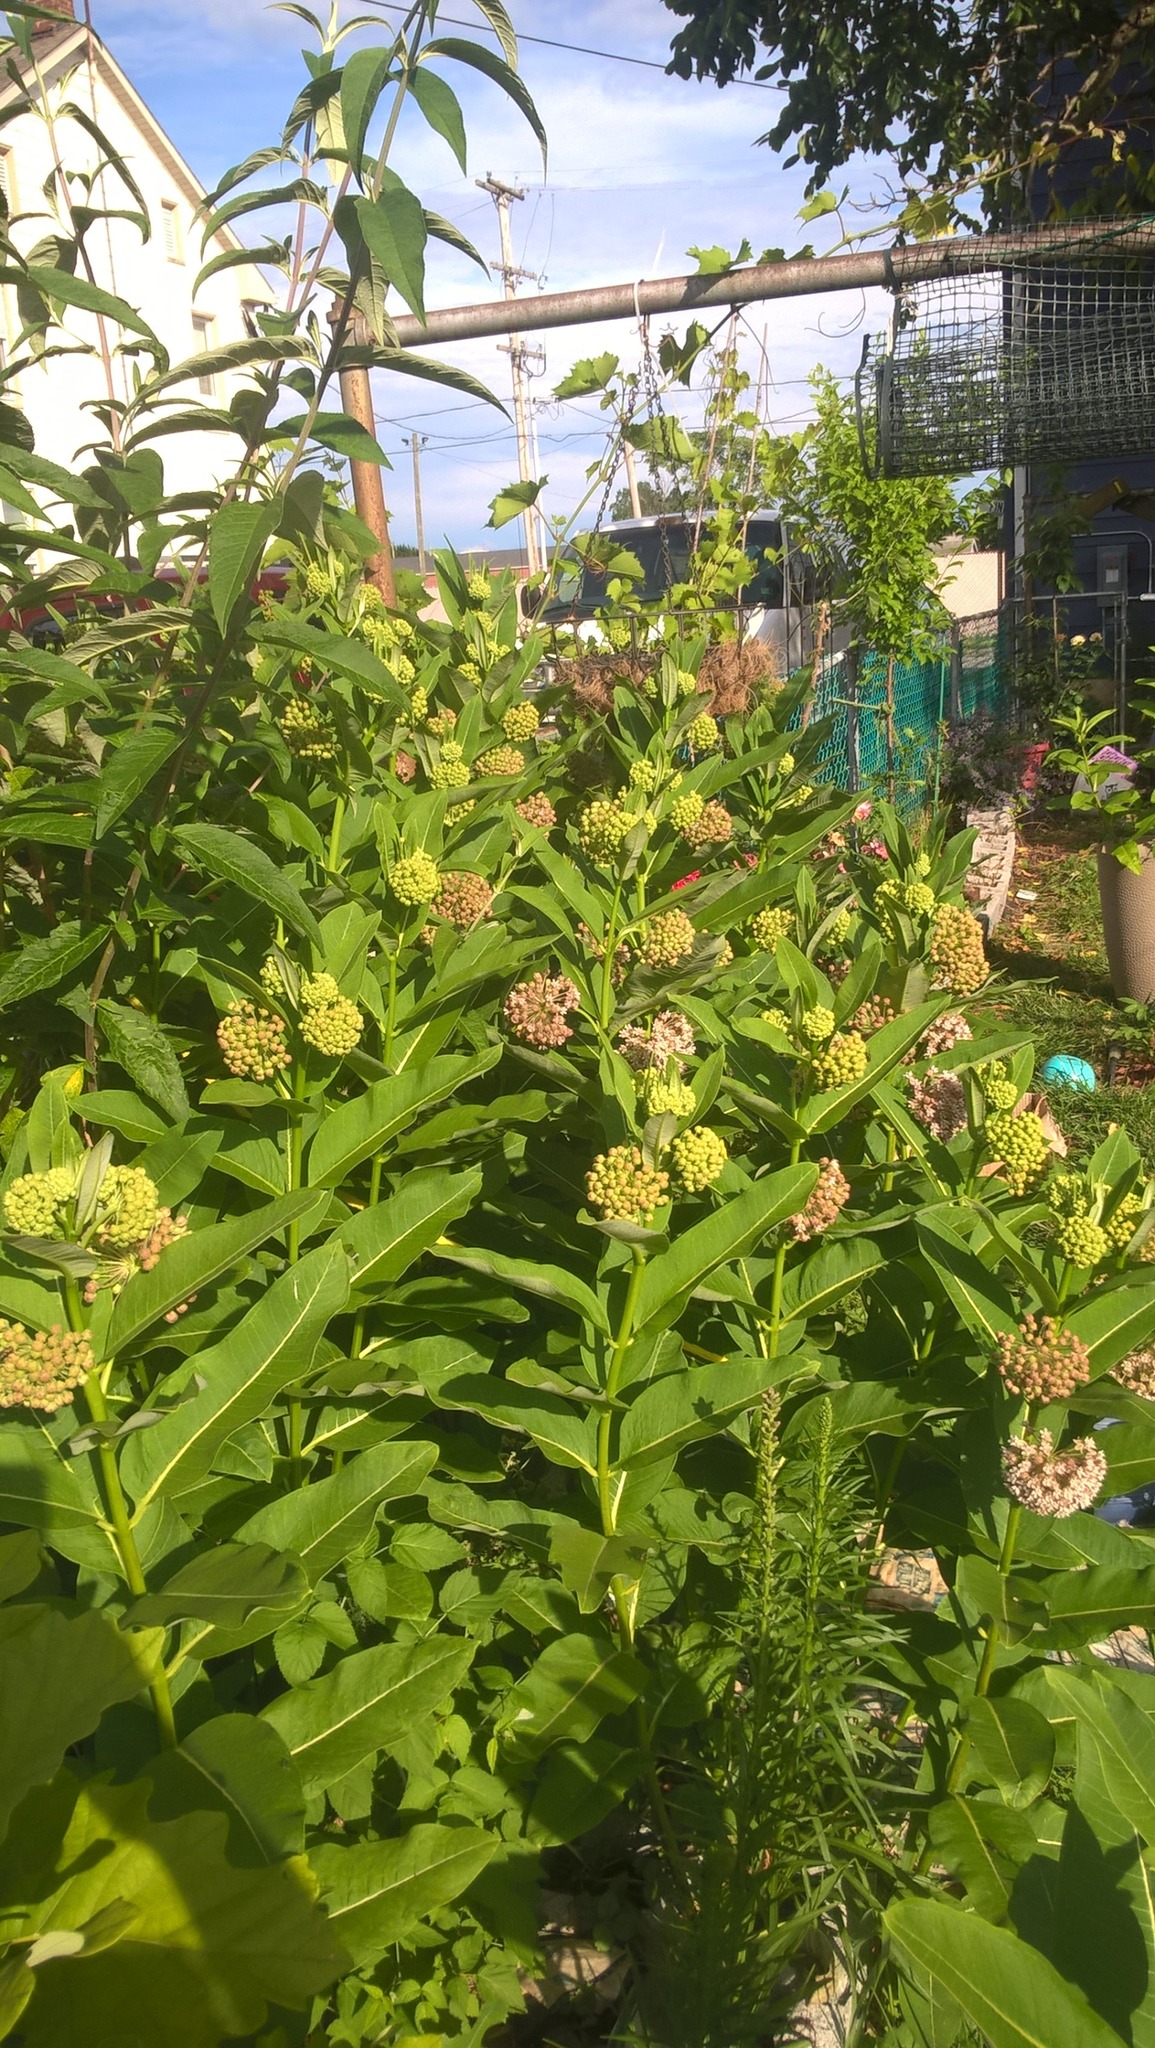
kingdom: Plantae
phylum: Tracheophyta
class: Magnoliopsida
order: Gentianales
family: Apocynaceae
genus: Asclepias
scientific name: Asclepias syriaca
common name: Common milkweed
